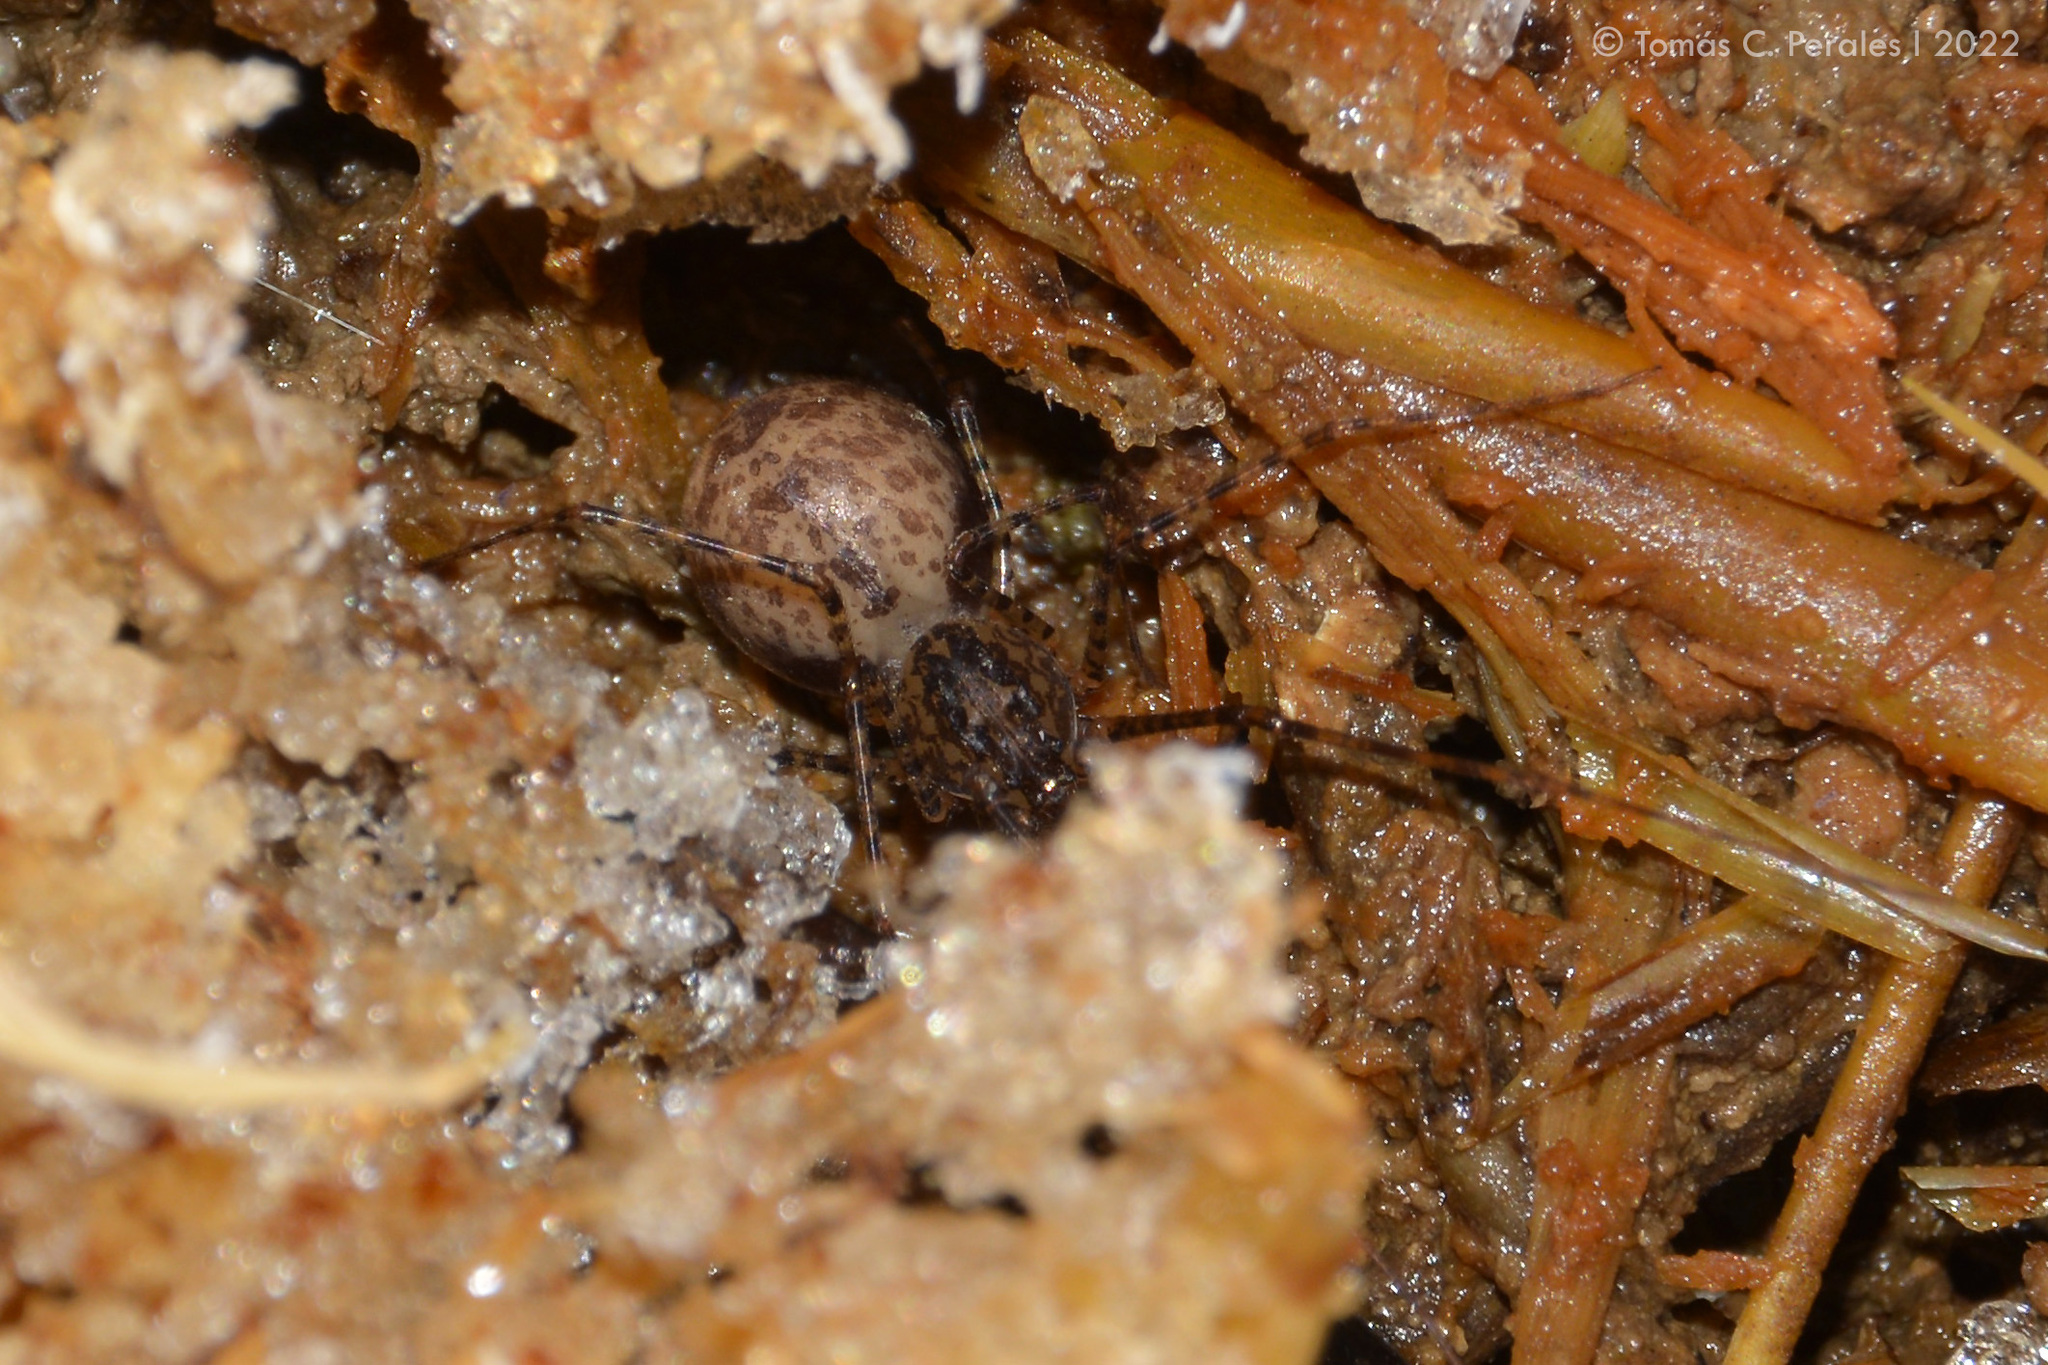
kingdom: Animalia
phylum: Arthropoda
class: Arachnida
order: Araneae
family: Scytodidae
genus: Scytodes
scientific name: Scytodes globula
